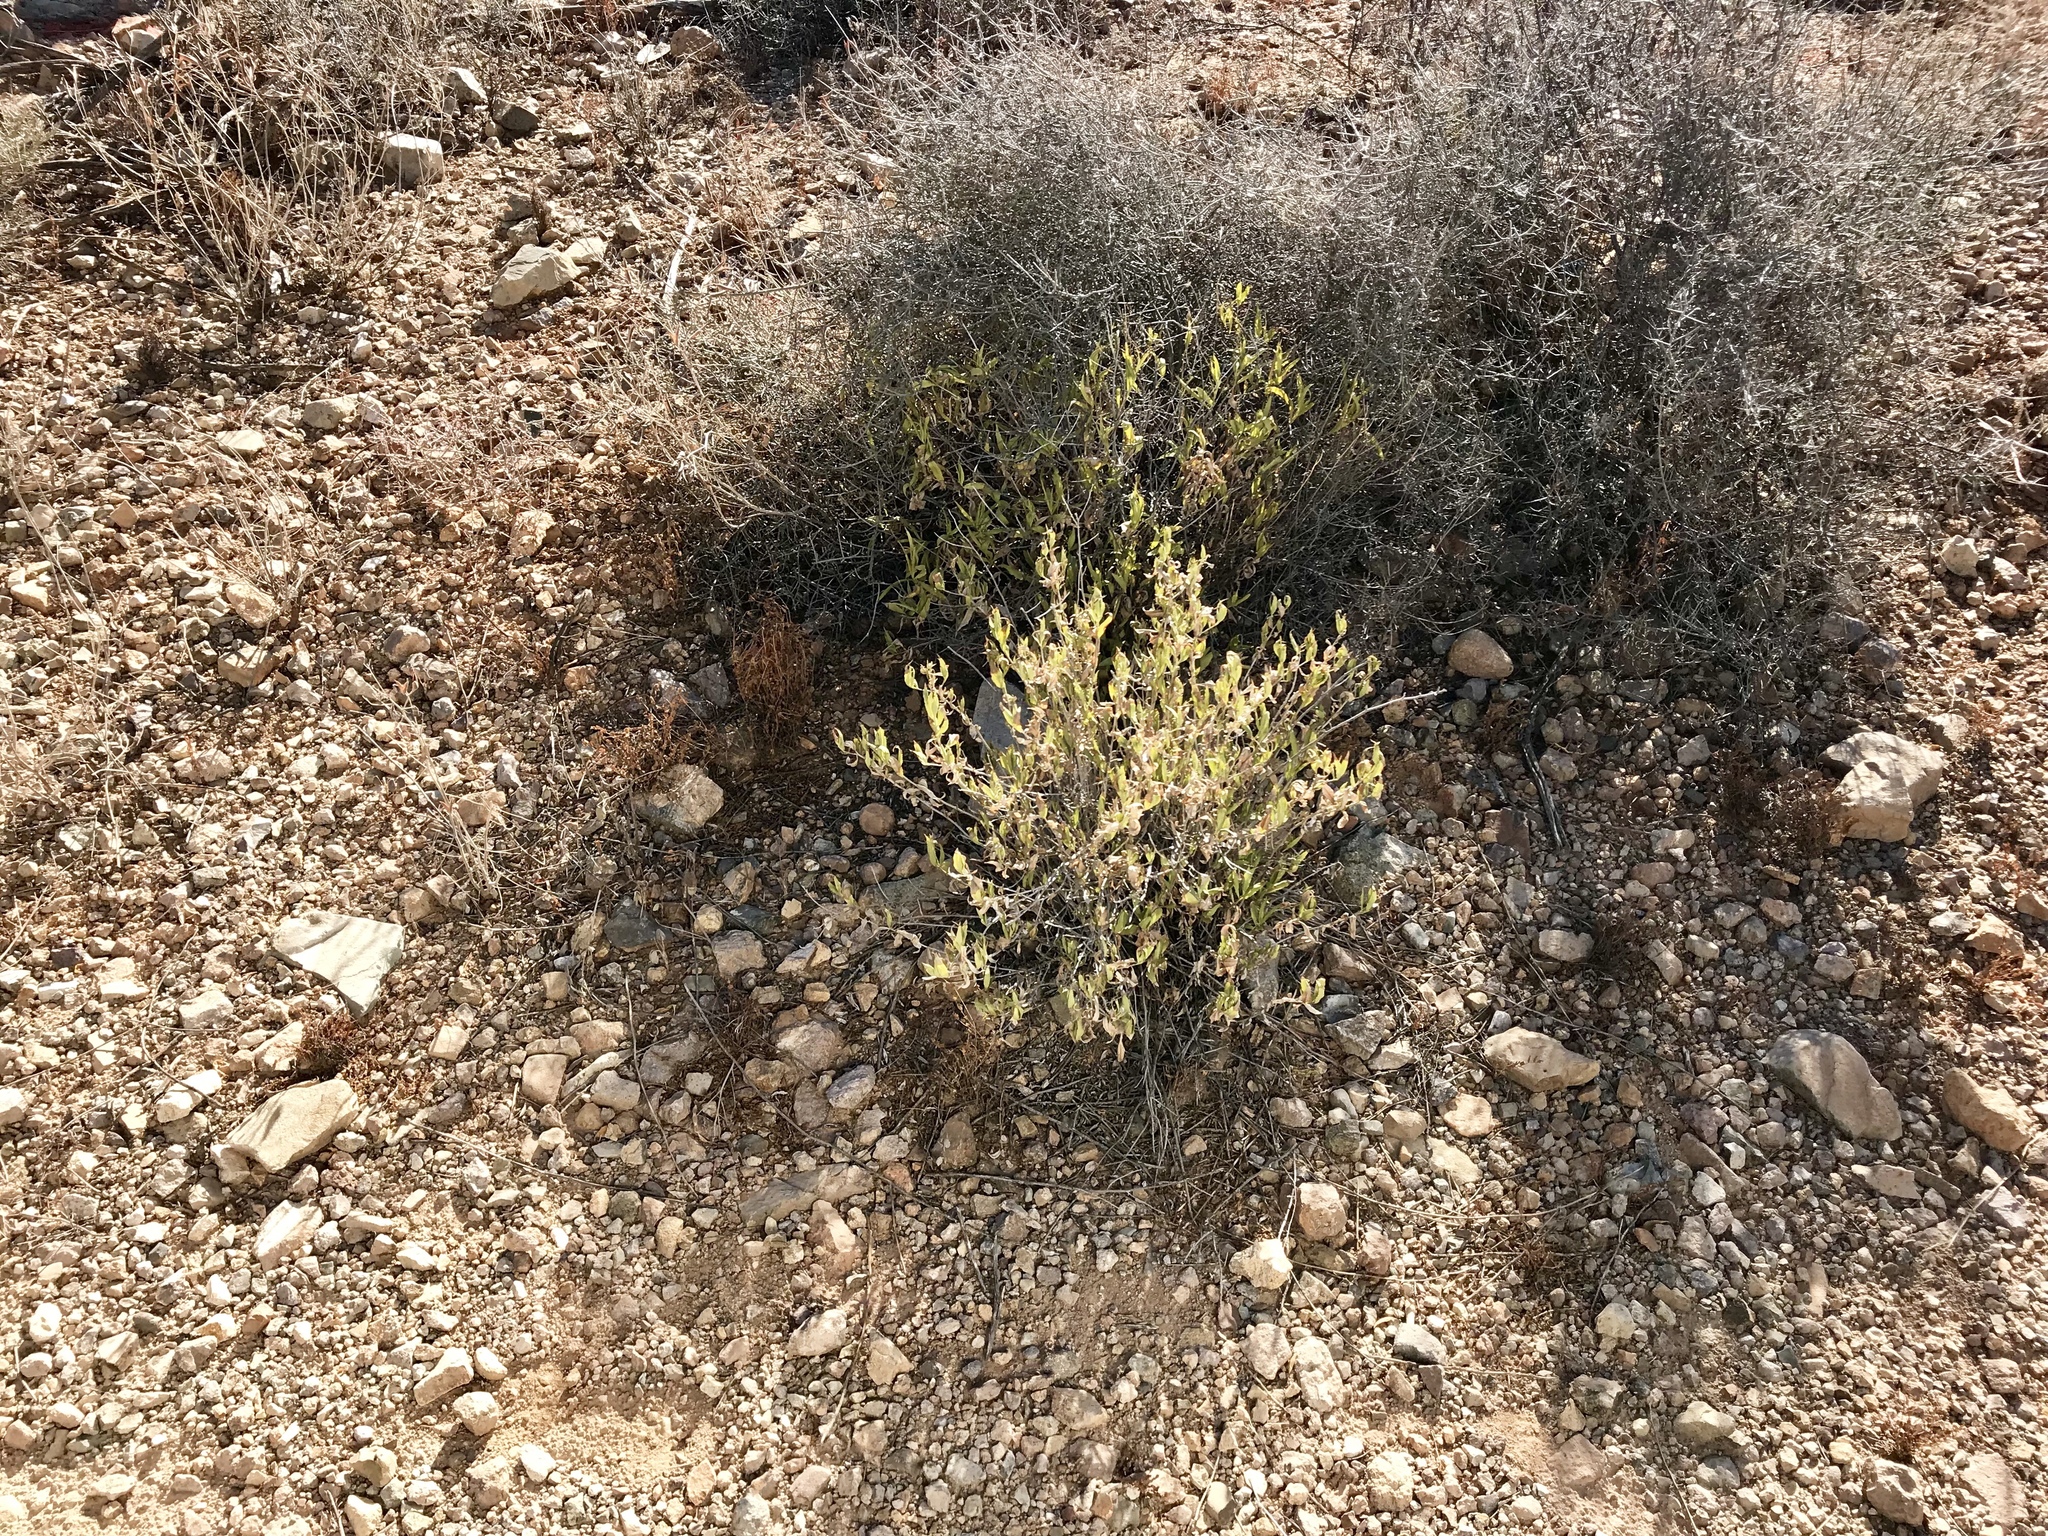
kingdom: Plantae
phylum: Tracheophyta
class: Magnoliopsida
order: Asterales
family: Asteraceae
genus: Trixis
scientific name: Trixis californica
